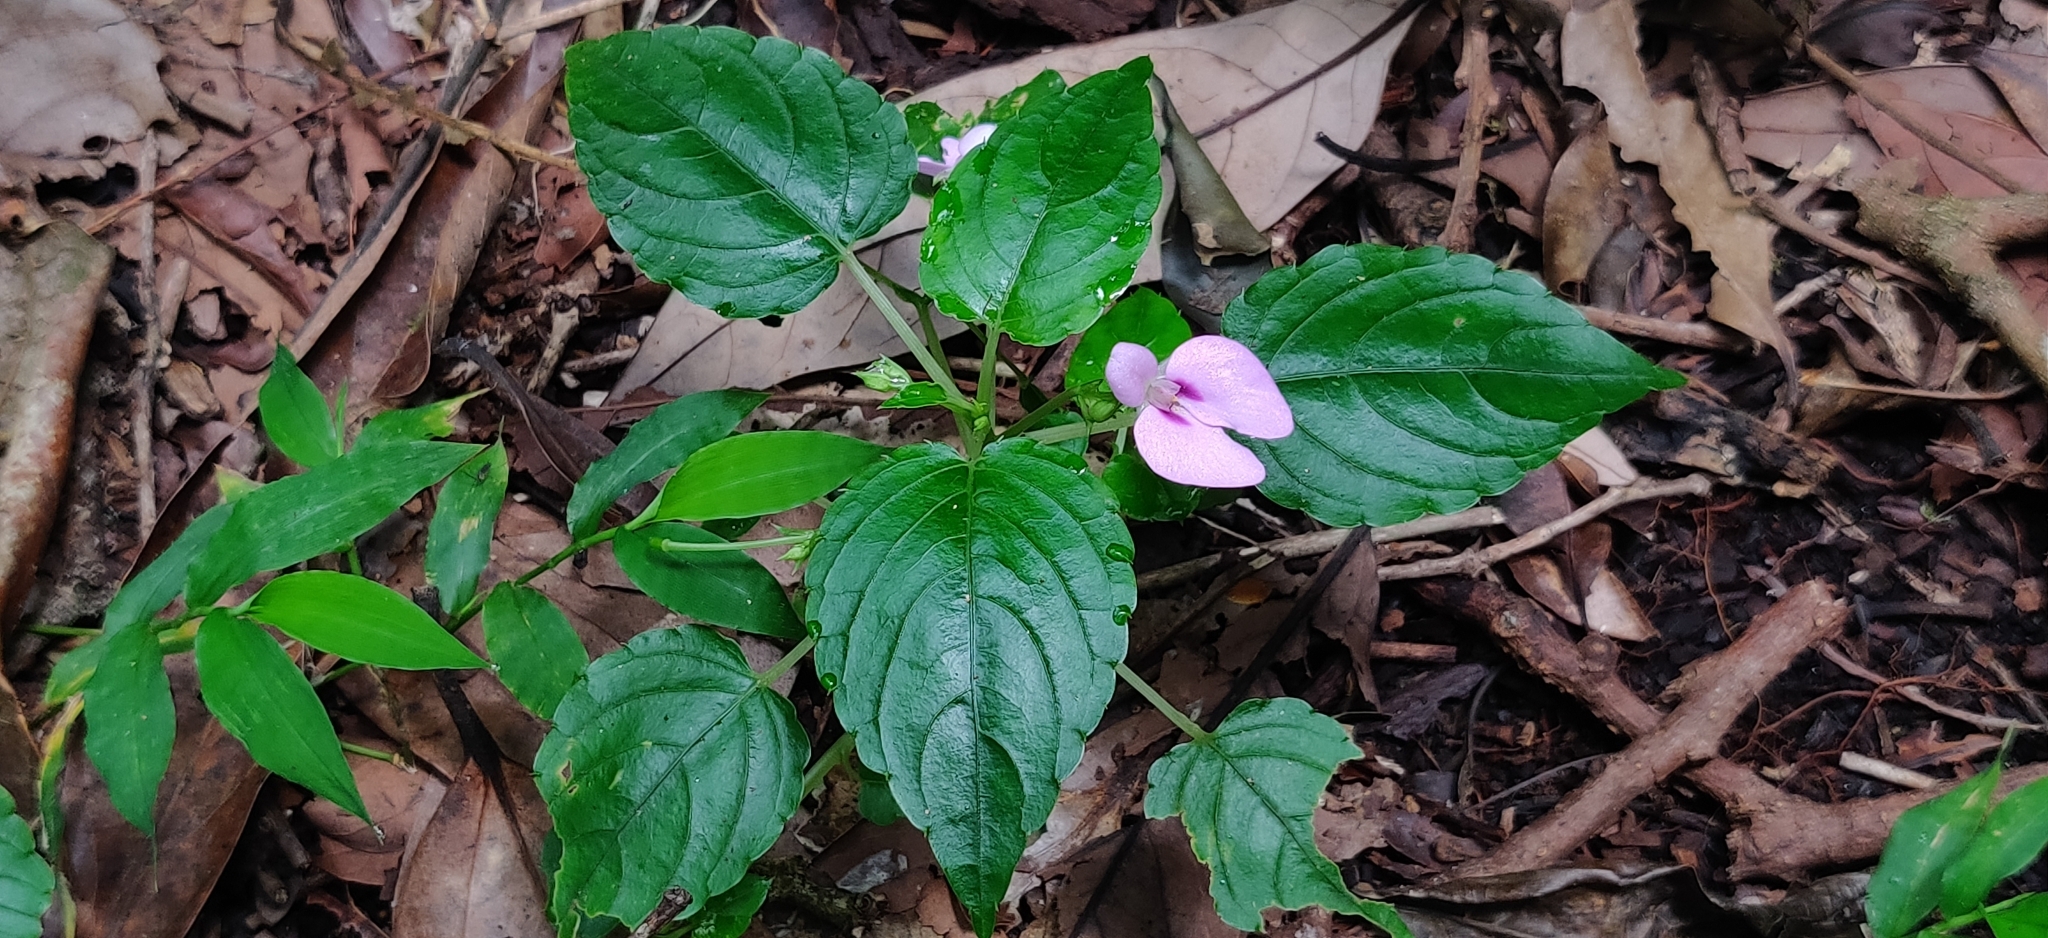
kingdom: Plantae
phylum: Tracheophyta
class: Magnoliopsida
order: Ericales
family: Balsaminaceae
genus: Impatiens
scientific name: Impatiens elegans
